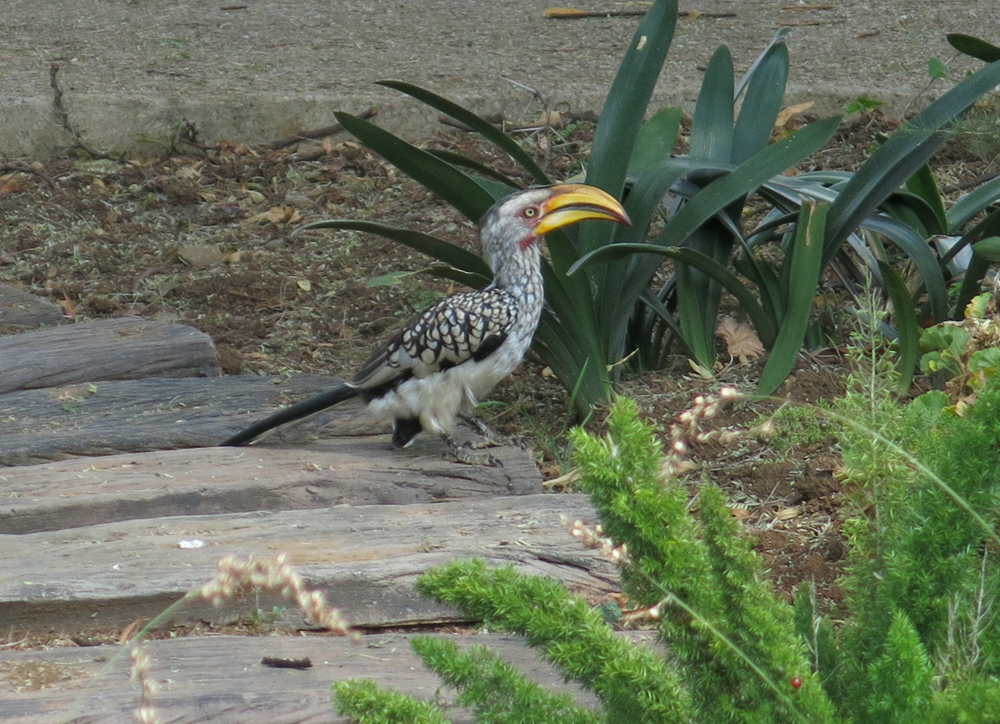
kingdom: Animalia
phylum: Chordata
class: Aves
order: Bucerotiformes
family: Bucerotidae
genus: Tockus
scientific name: Tockus leucomelas
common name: Southern yellow-billed hornbill
